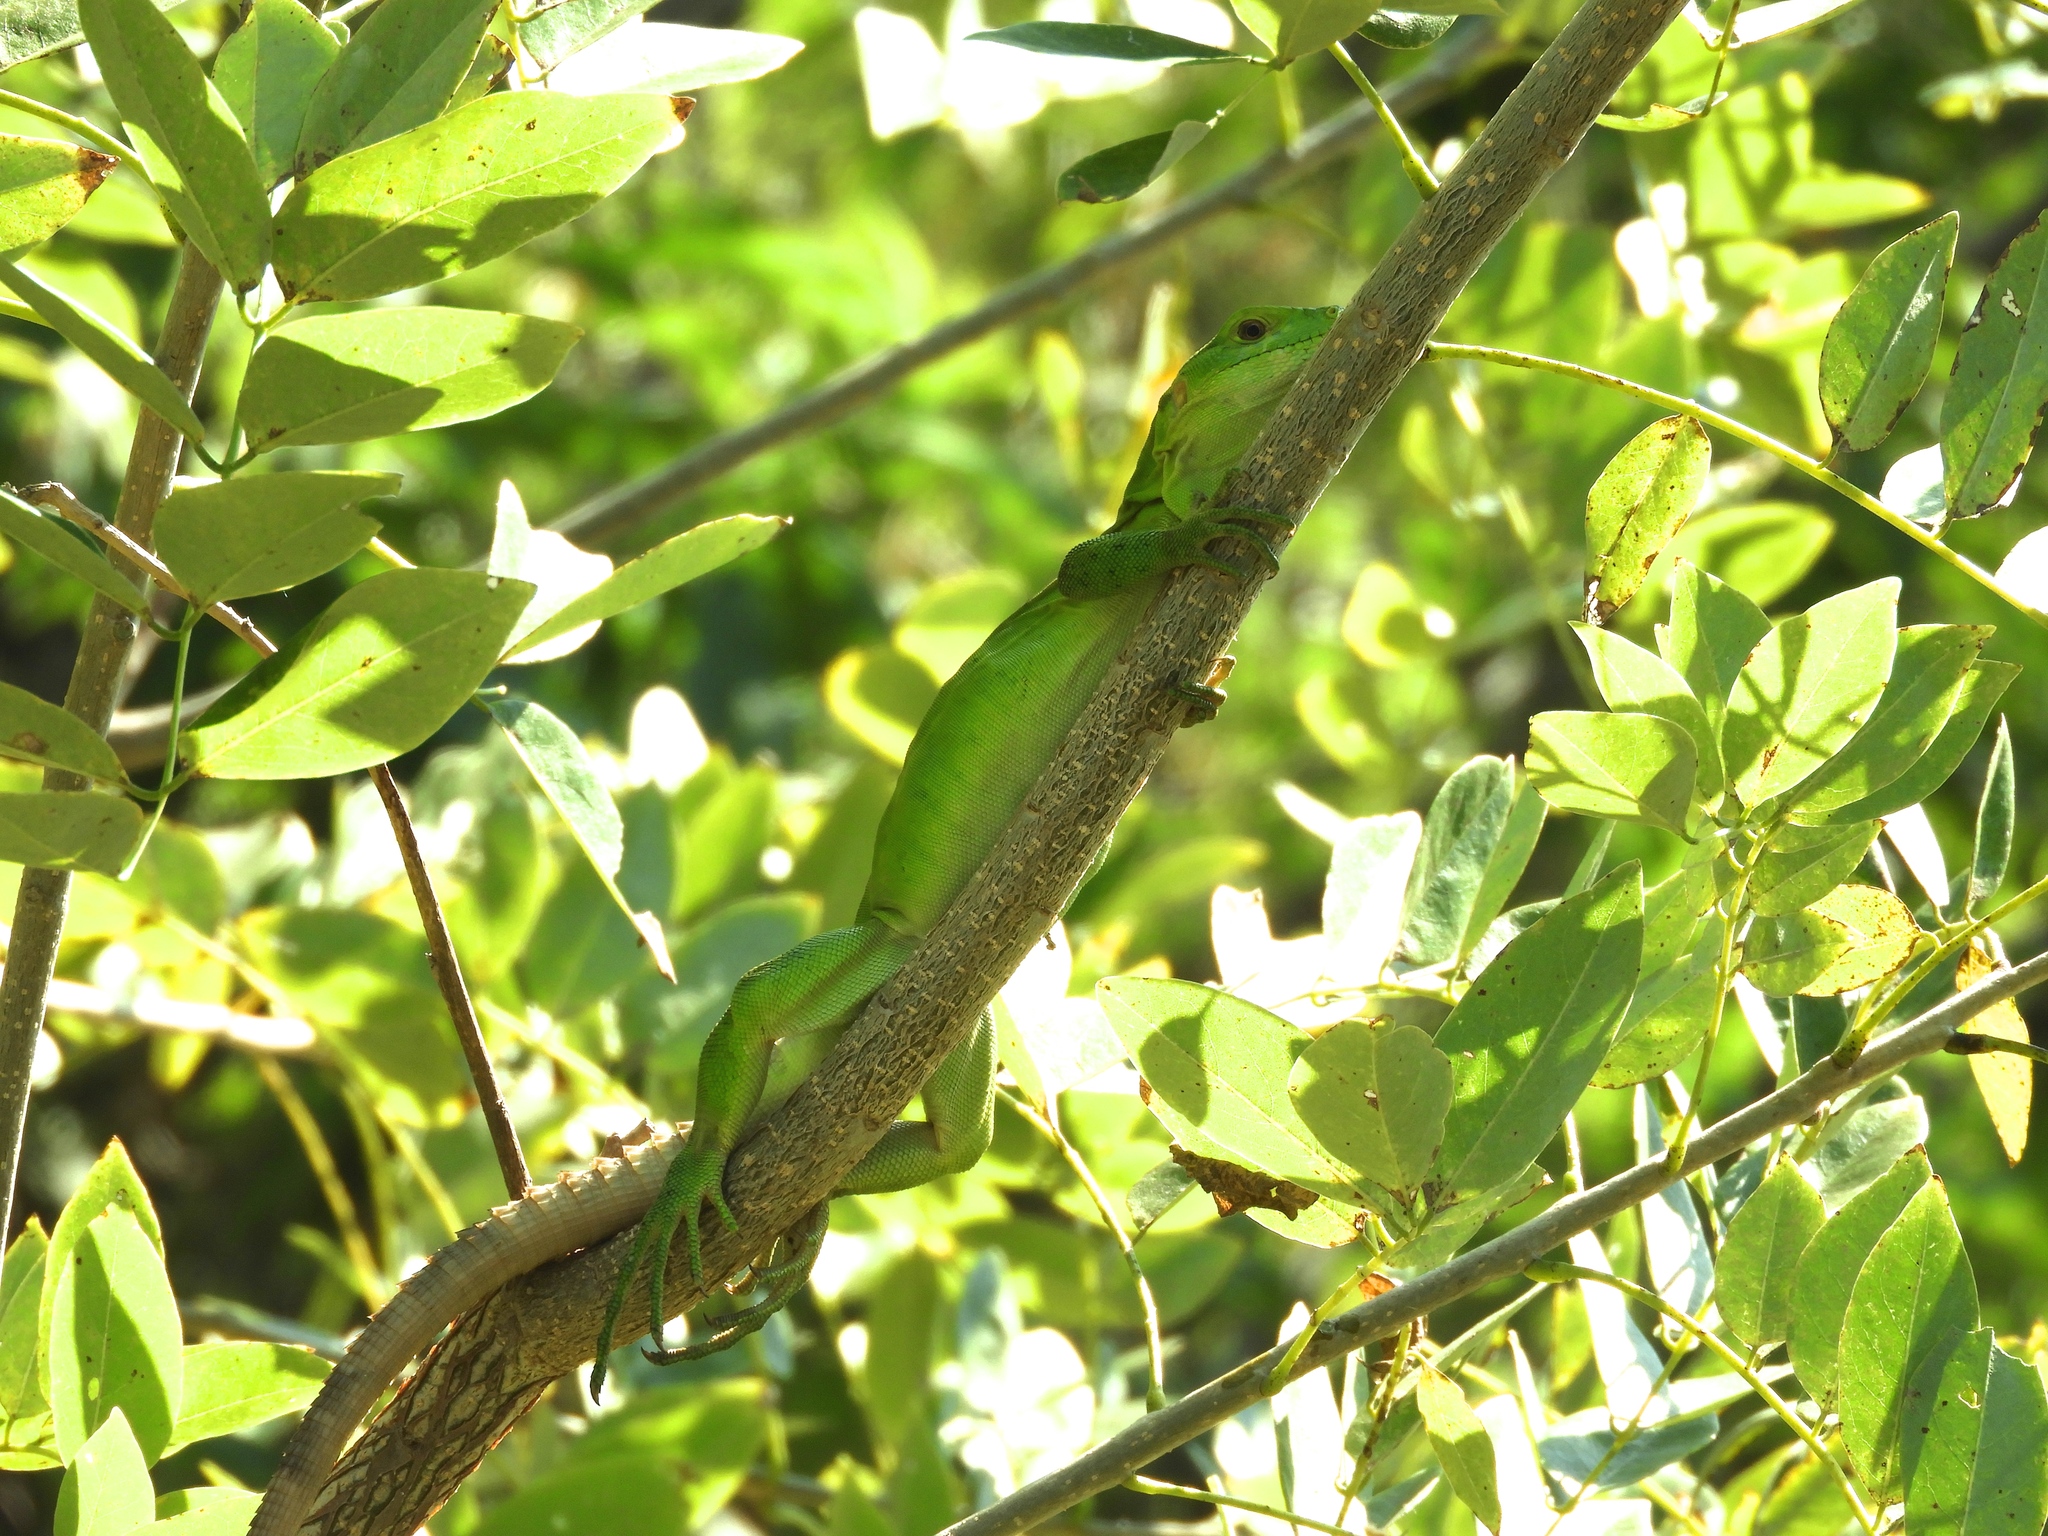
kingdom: Animalia
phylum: Chordata
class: Squamata
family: Iguanidae
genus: Ctenosaura
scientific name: Ctenosaura pectinata
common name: Guerreran spiny-tailed iguana
